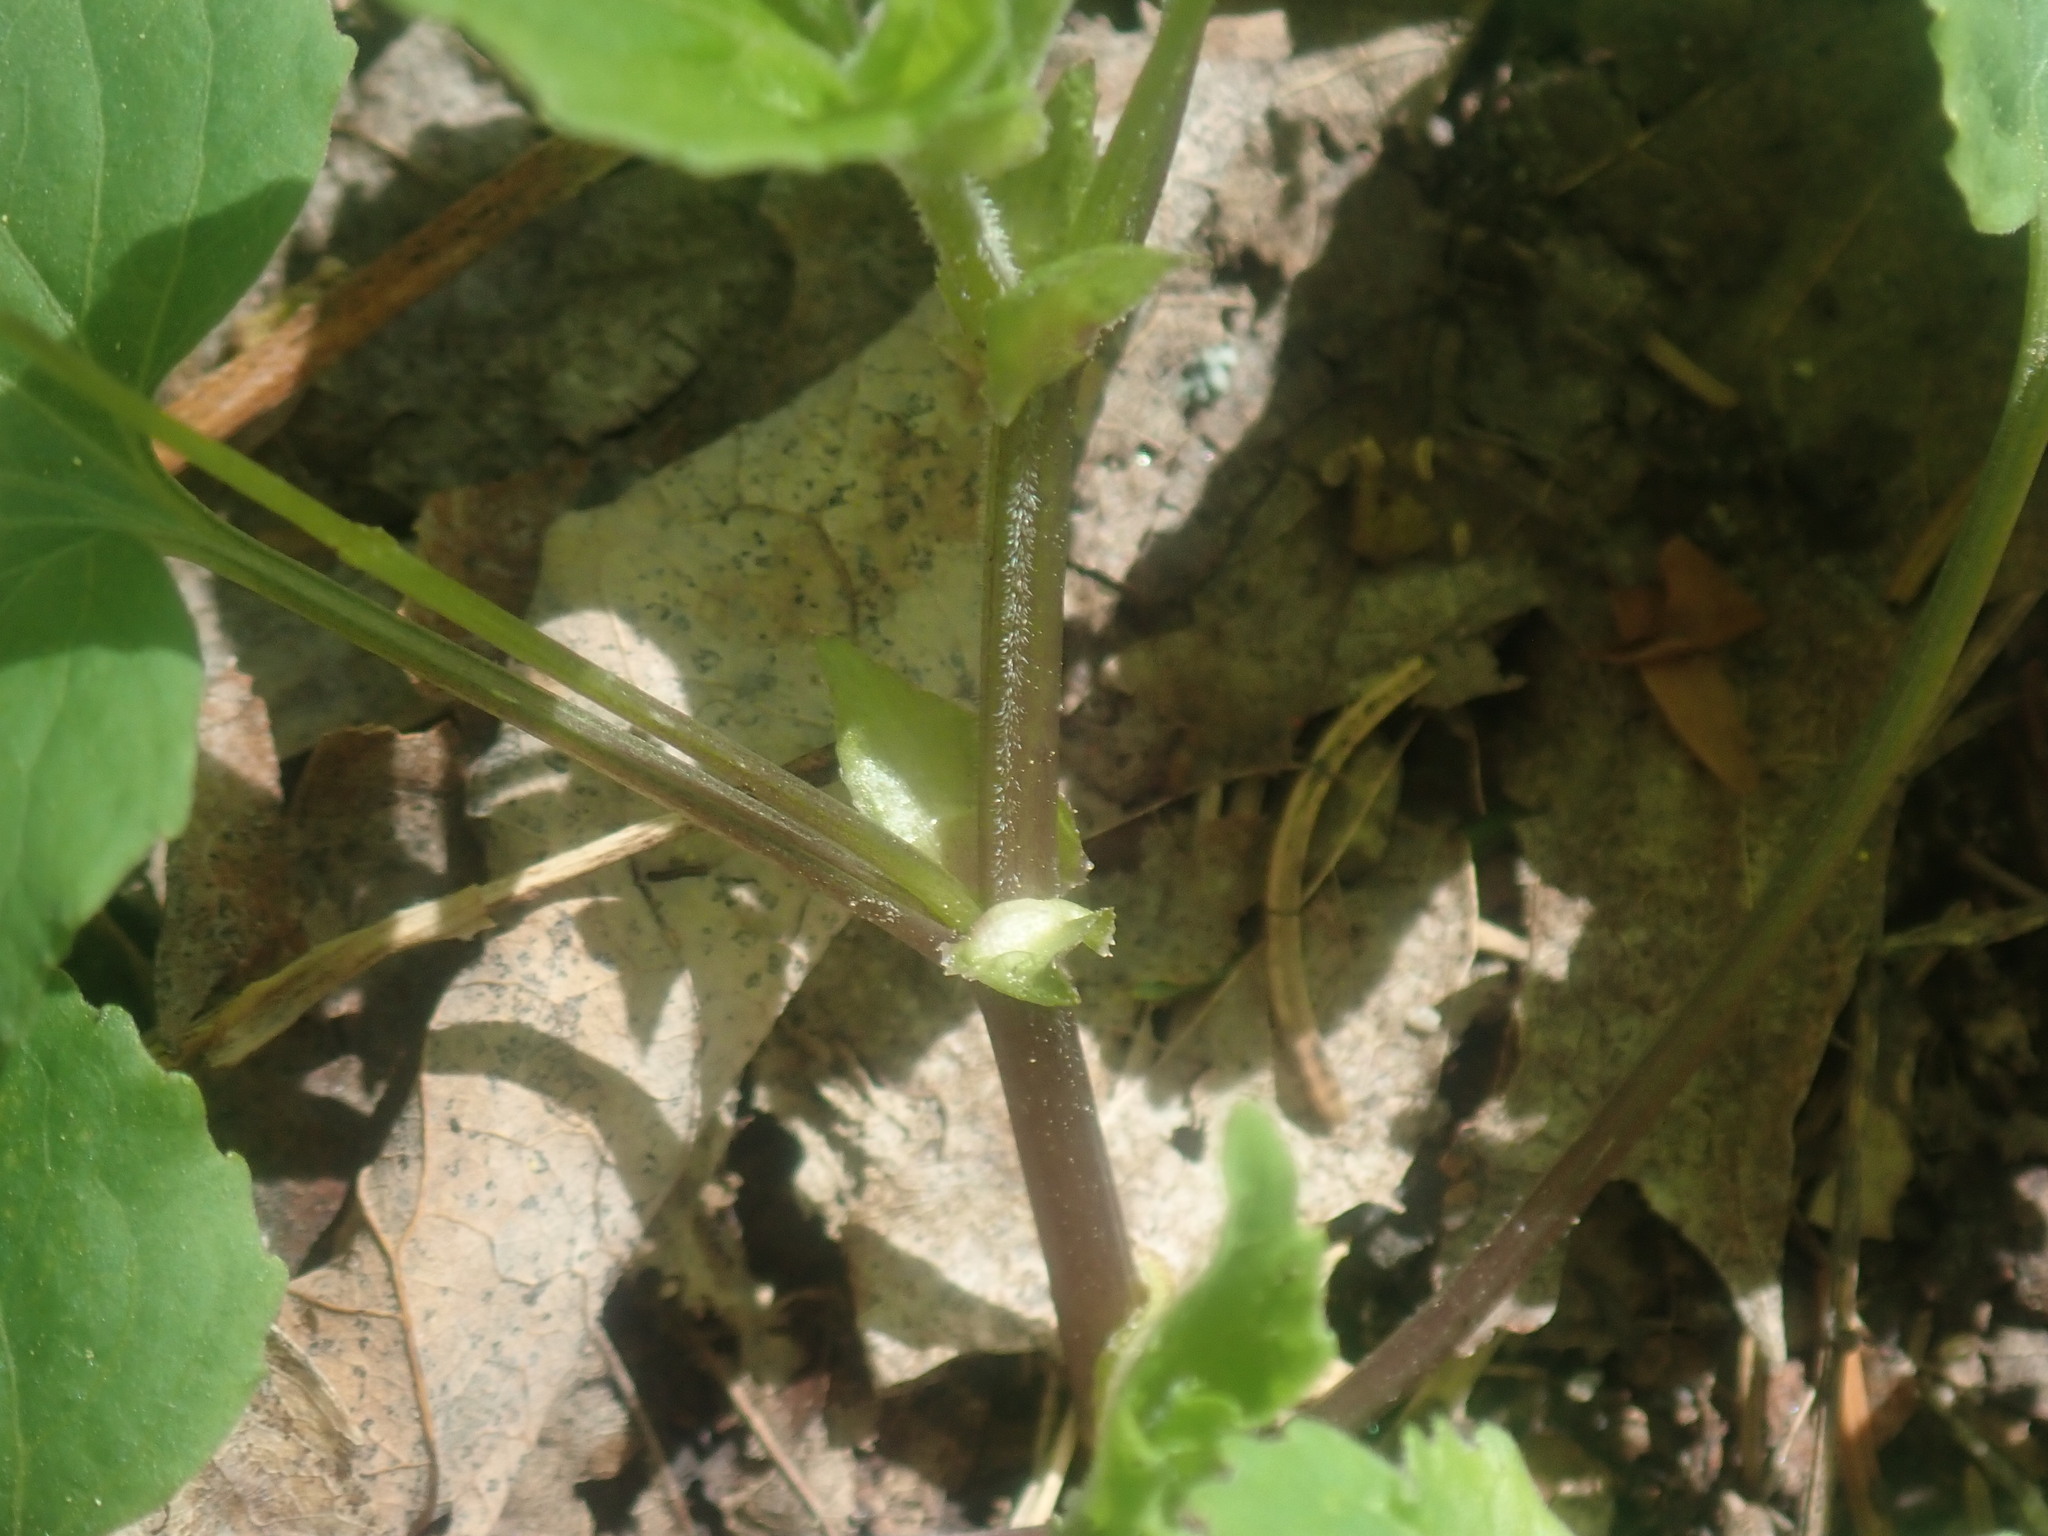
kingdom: Plantae
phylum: Tracheophyta
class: Magnoliopsida
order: Malpighiales
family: Violaceae
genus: Viola
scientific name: Viola eriocarpa
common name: Smooth yellow violet
